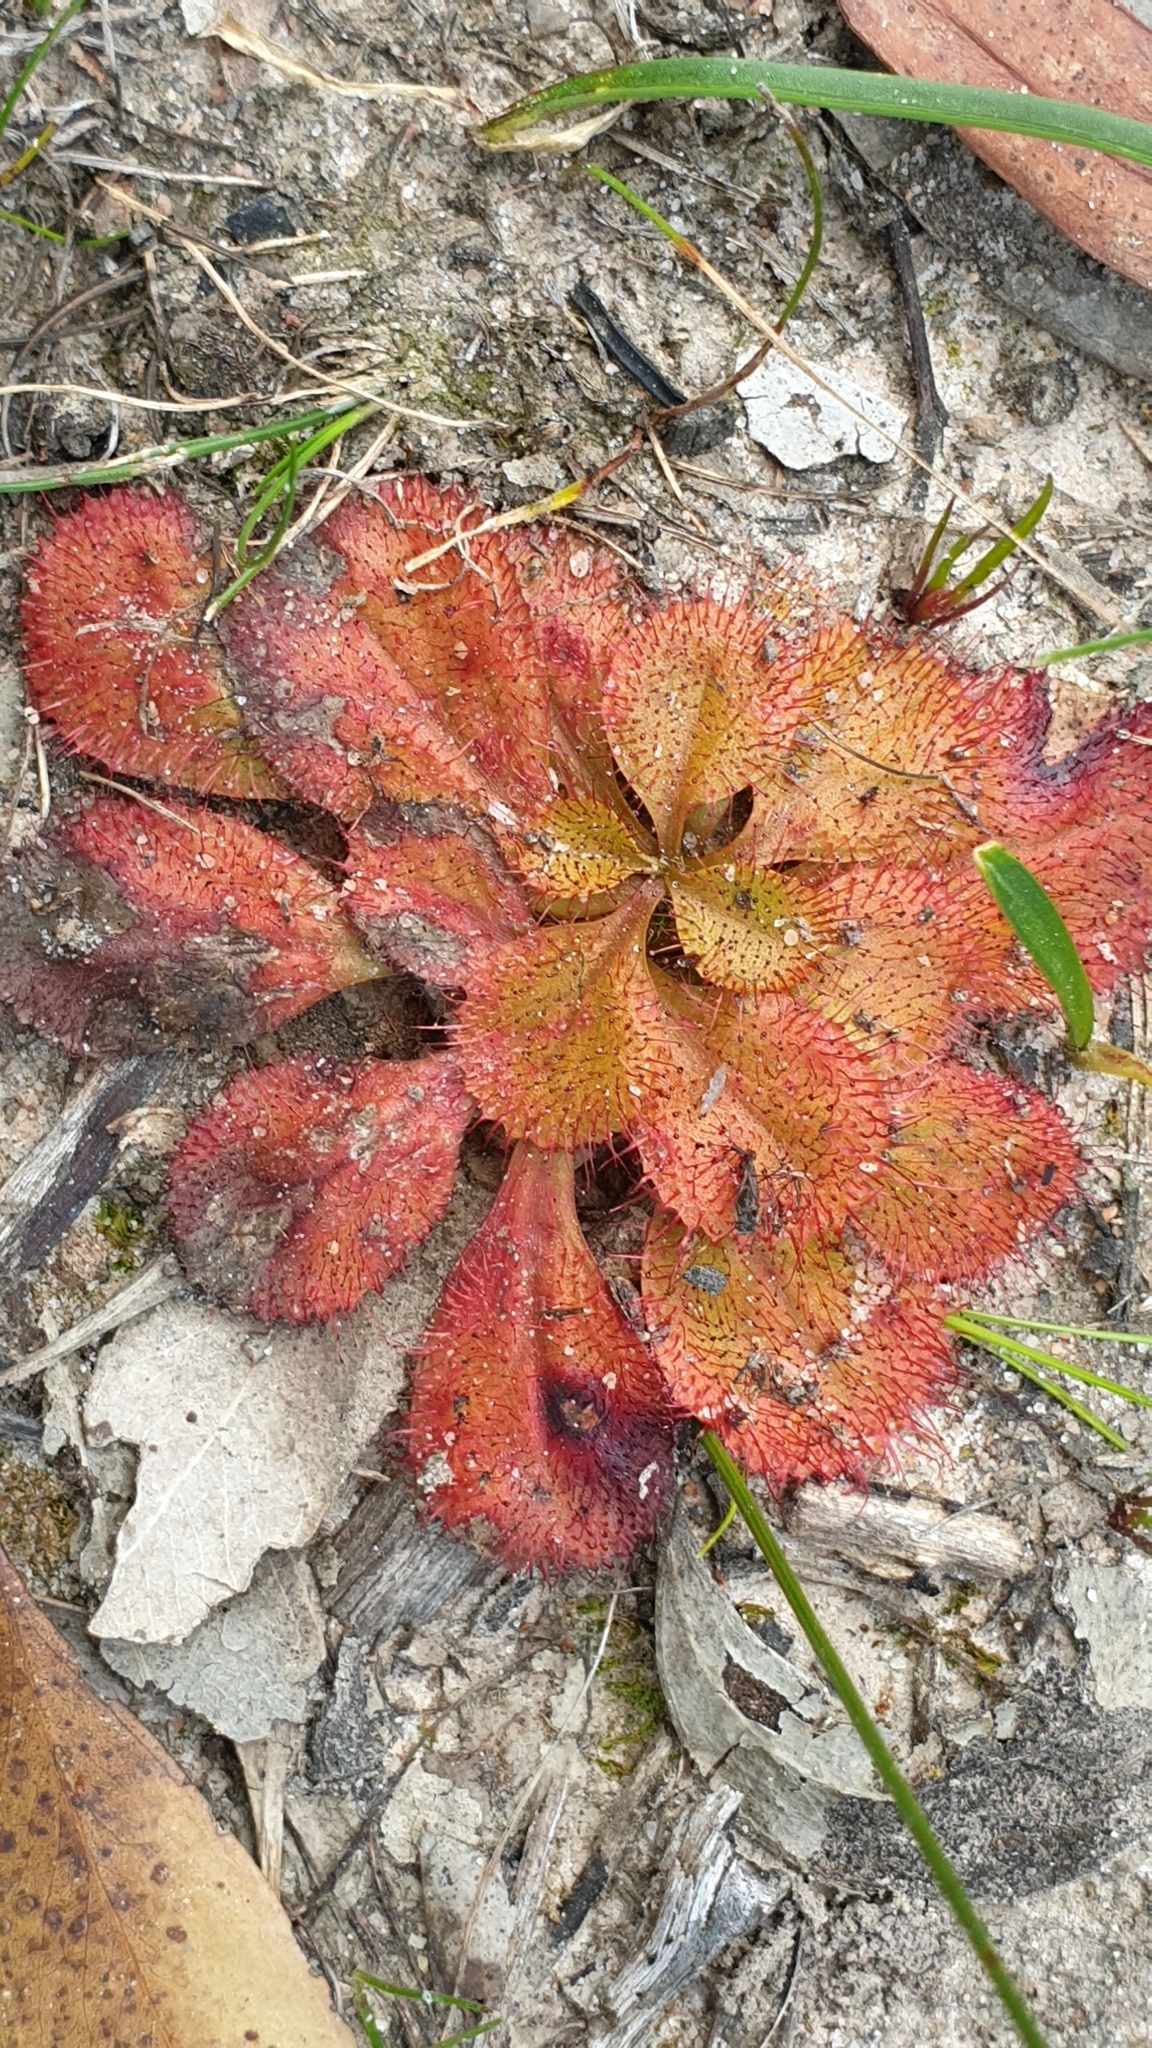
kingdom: Plantae
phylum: Tracheophyta
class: Magnoliopsida
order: Caryophyllales
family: Droseraceae
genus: Drosera
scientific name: Drosera praefolia
